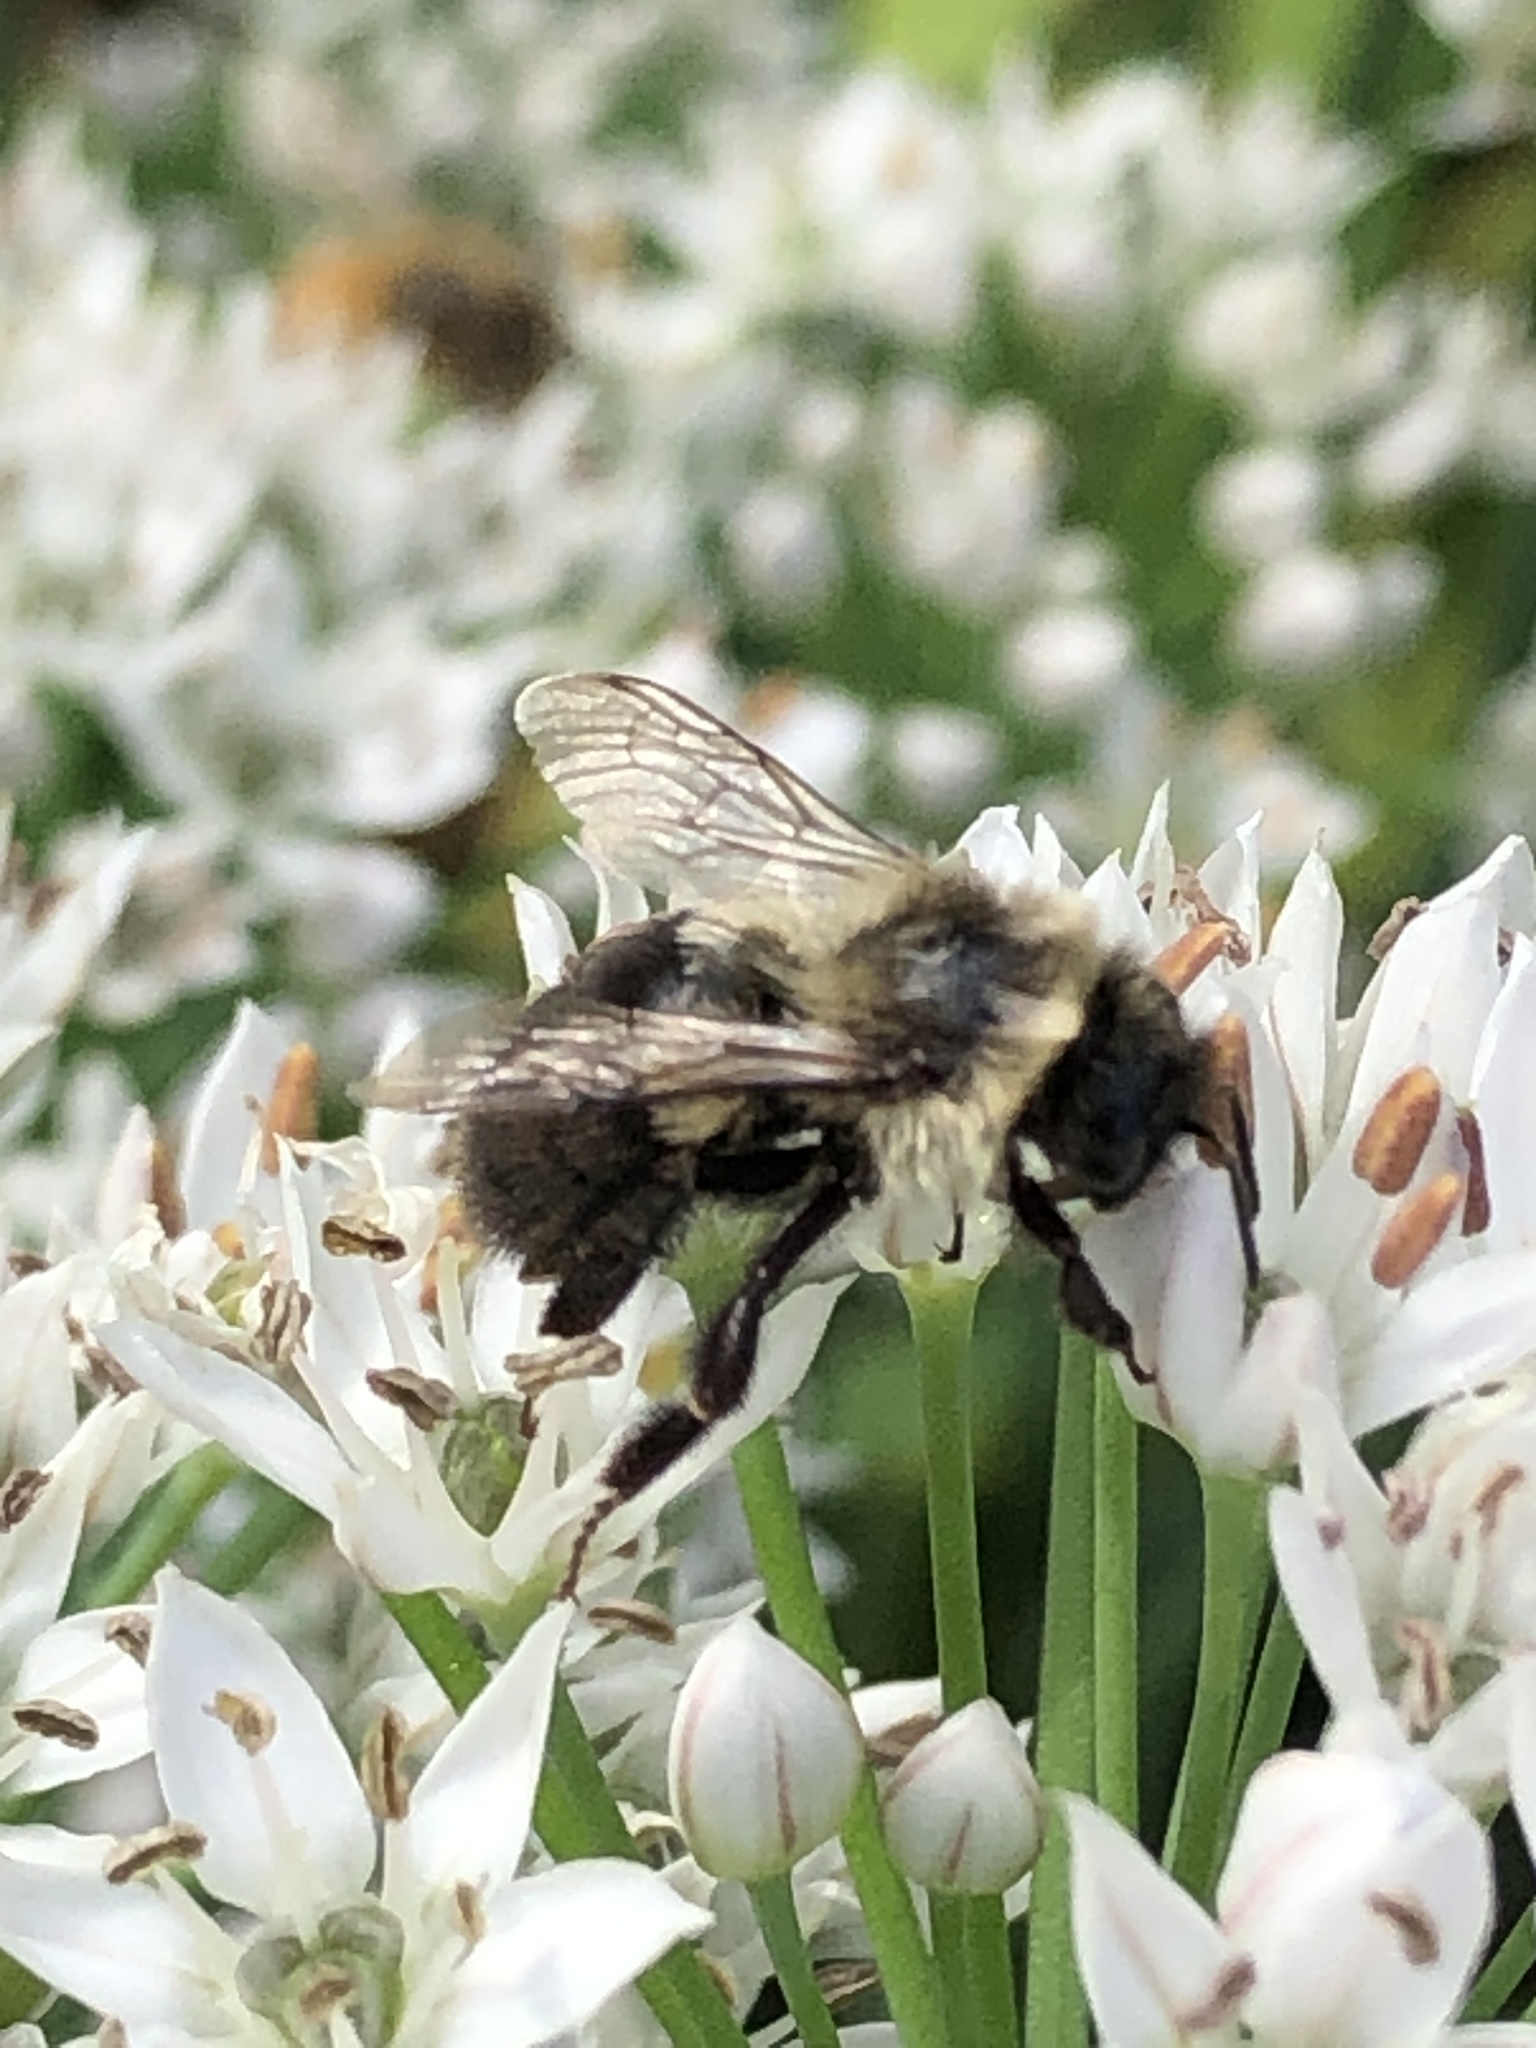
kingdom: Animalia
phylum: Arthropoda
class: Insecta
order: Hymenoptera
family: Apidae
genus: Bombus
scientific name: Bombus impatiens
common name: Common eastern bumble bee
